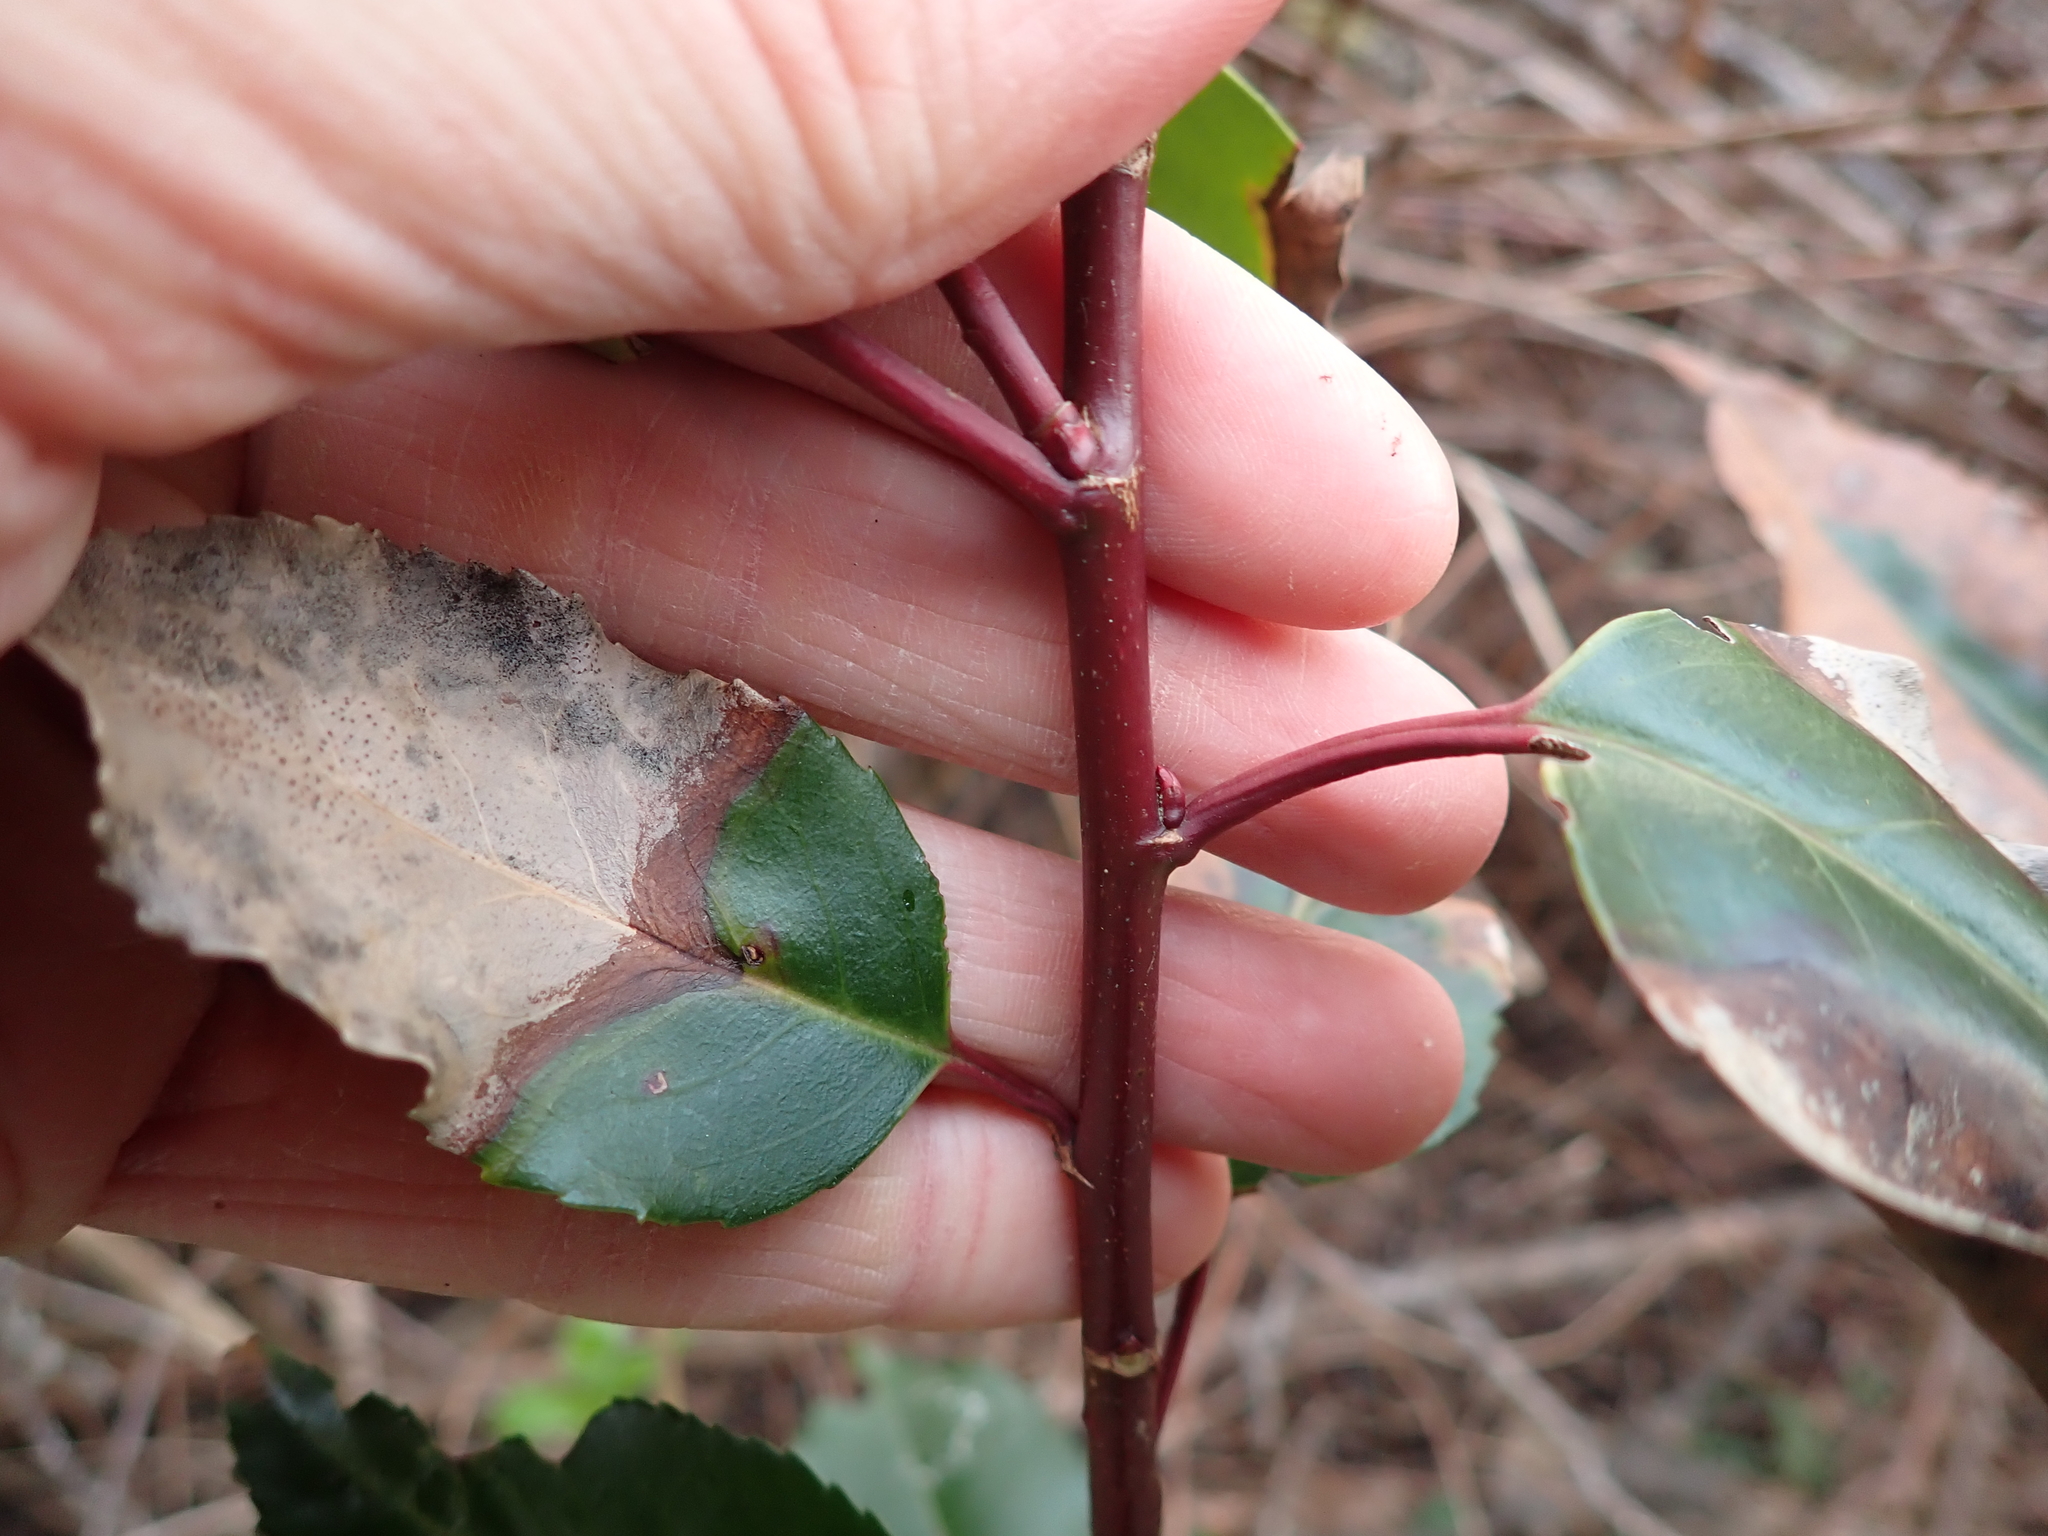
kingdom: Plantae
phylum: Tracheophyta
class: Magnoliopsida
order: Rosales
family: Rosaceae
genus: Prunus
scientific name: Prunus lusitanica
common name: Portugal laurel
